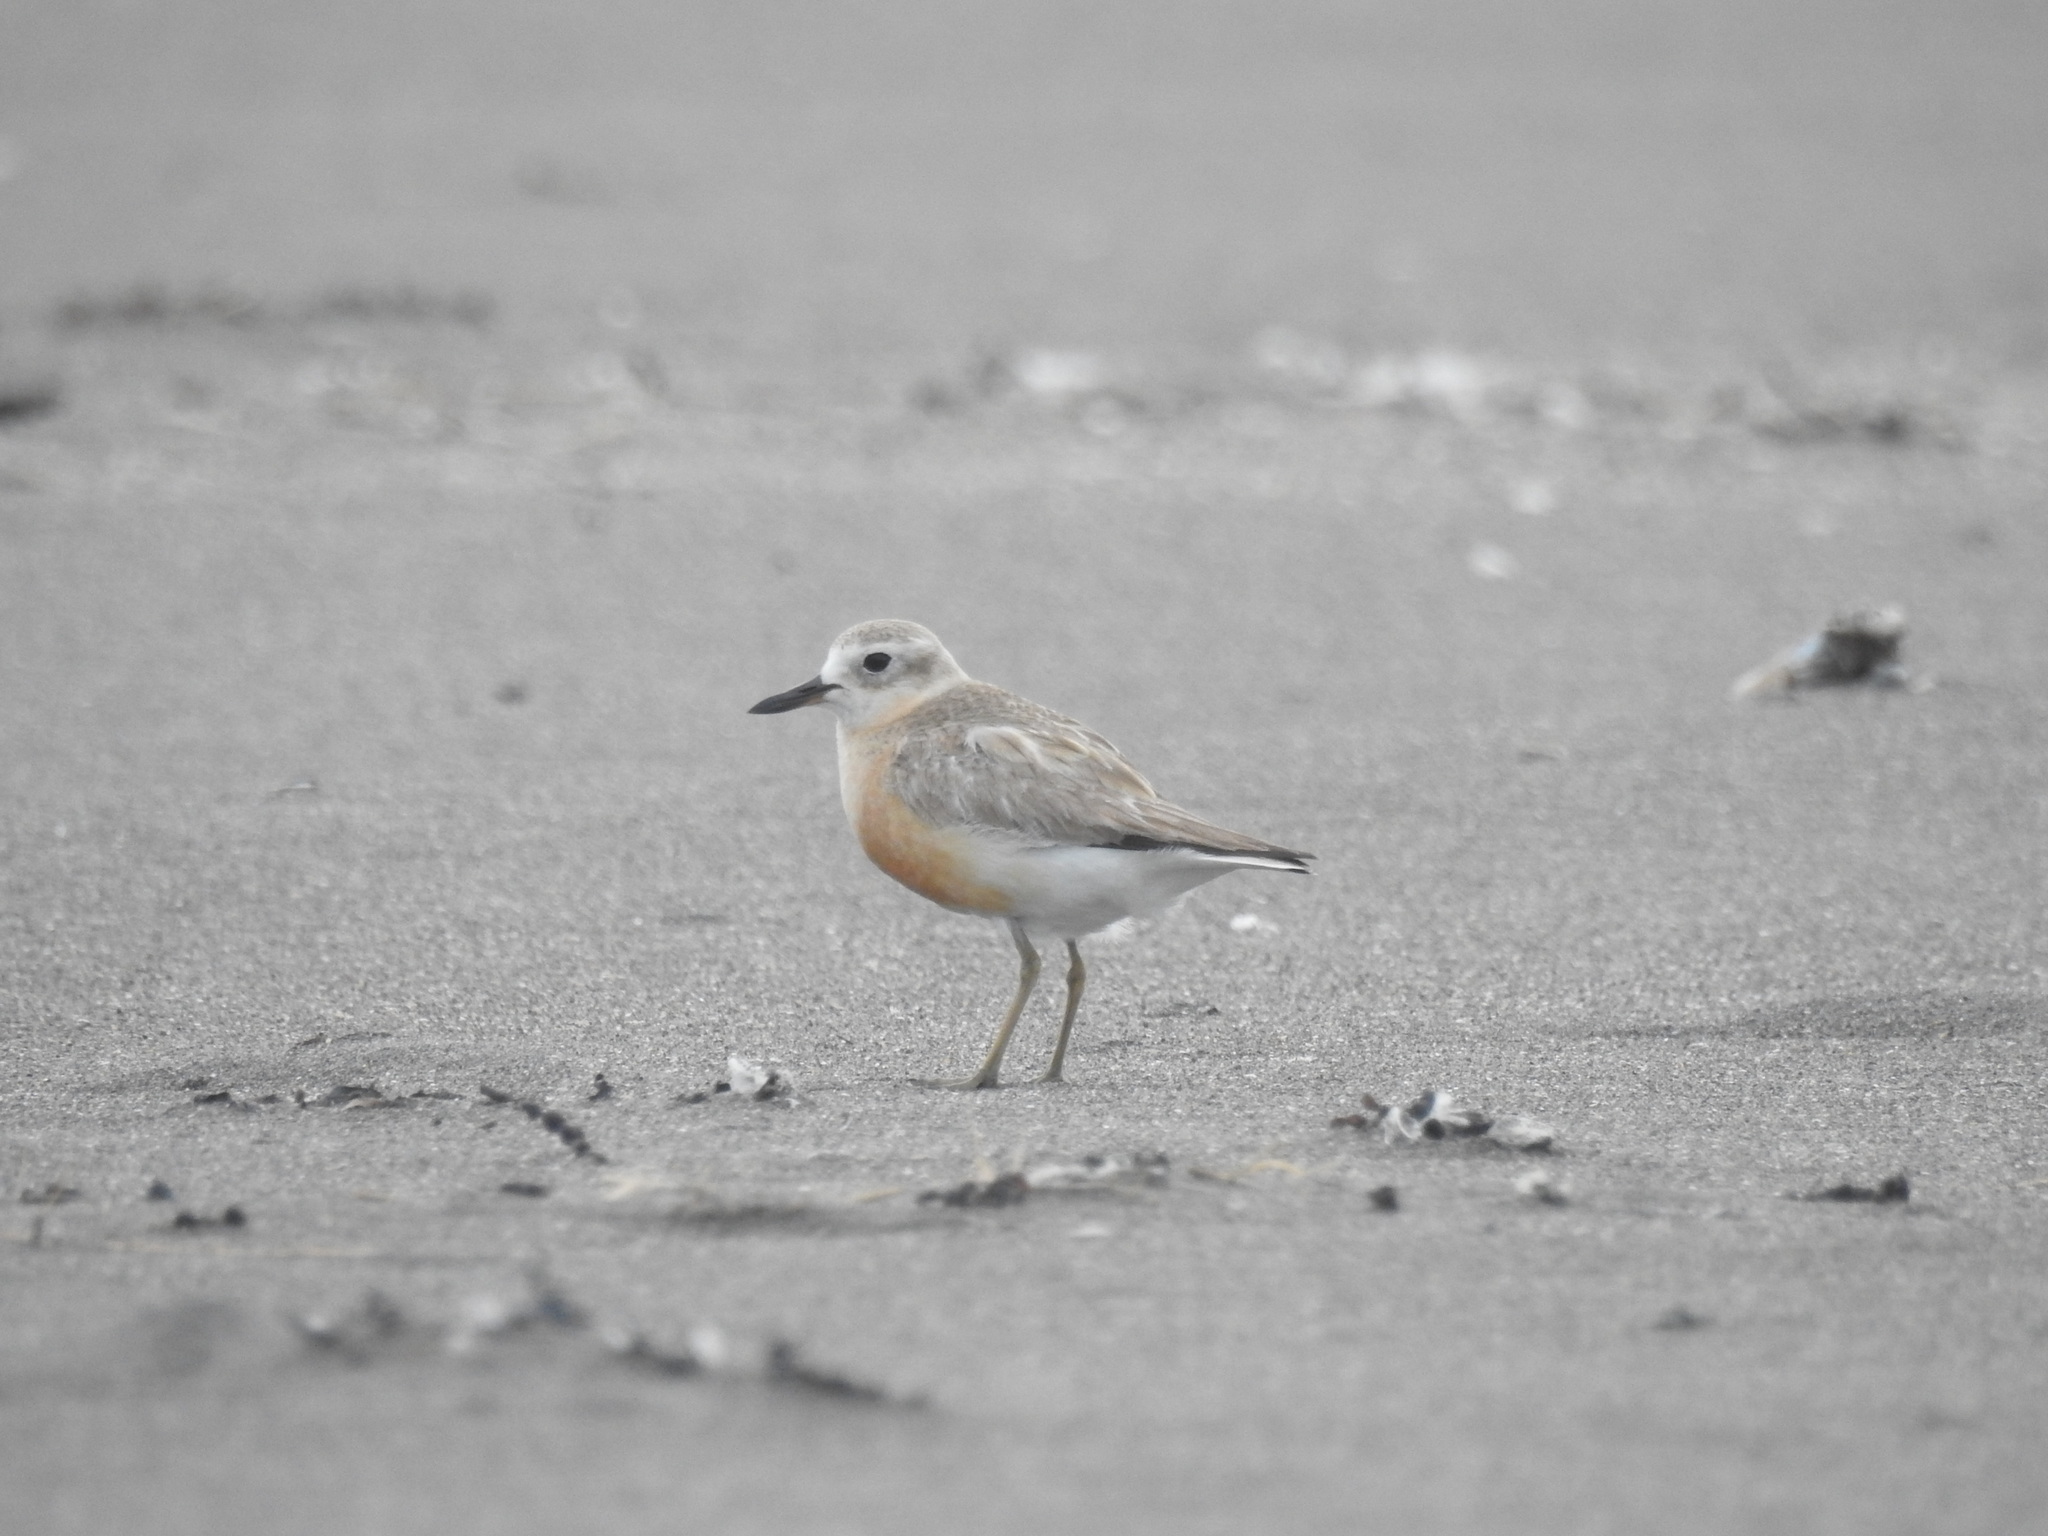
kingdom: Animalia
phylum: Chordata
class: Aves
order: Charadriiformes
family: Charadriidae
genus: Anarhynchus
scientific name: Anarhynchus
